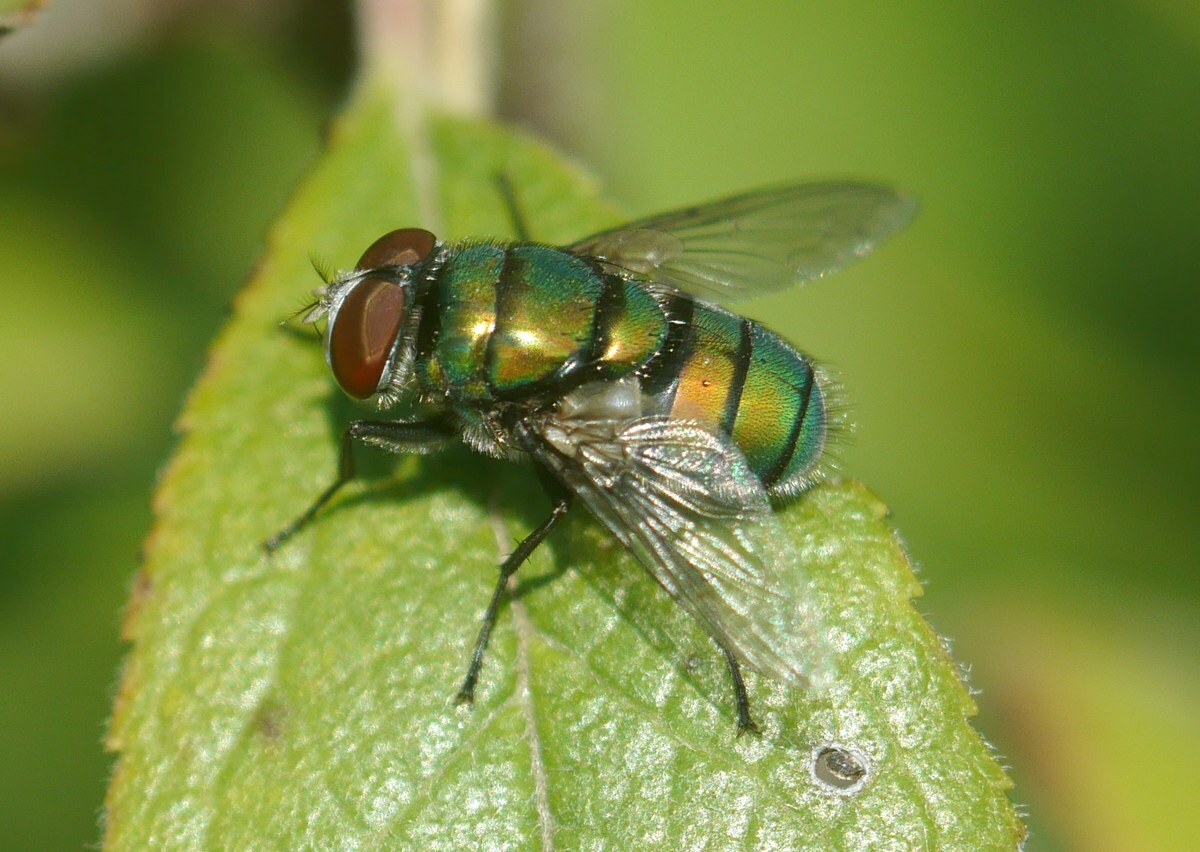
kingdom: Animalia
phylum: Arthropoda
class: Insecta
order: Diptera
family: Calliphoridae
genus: Chrysomya
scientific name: Chrysomya albiceps
